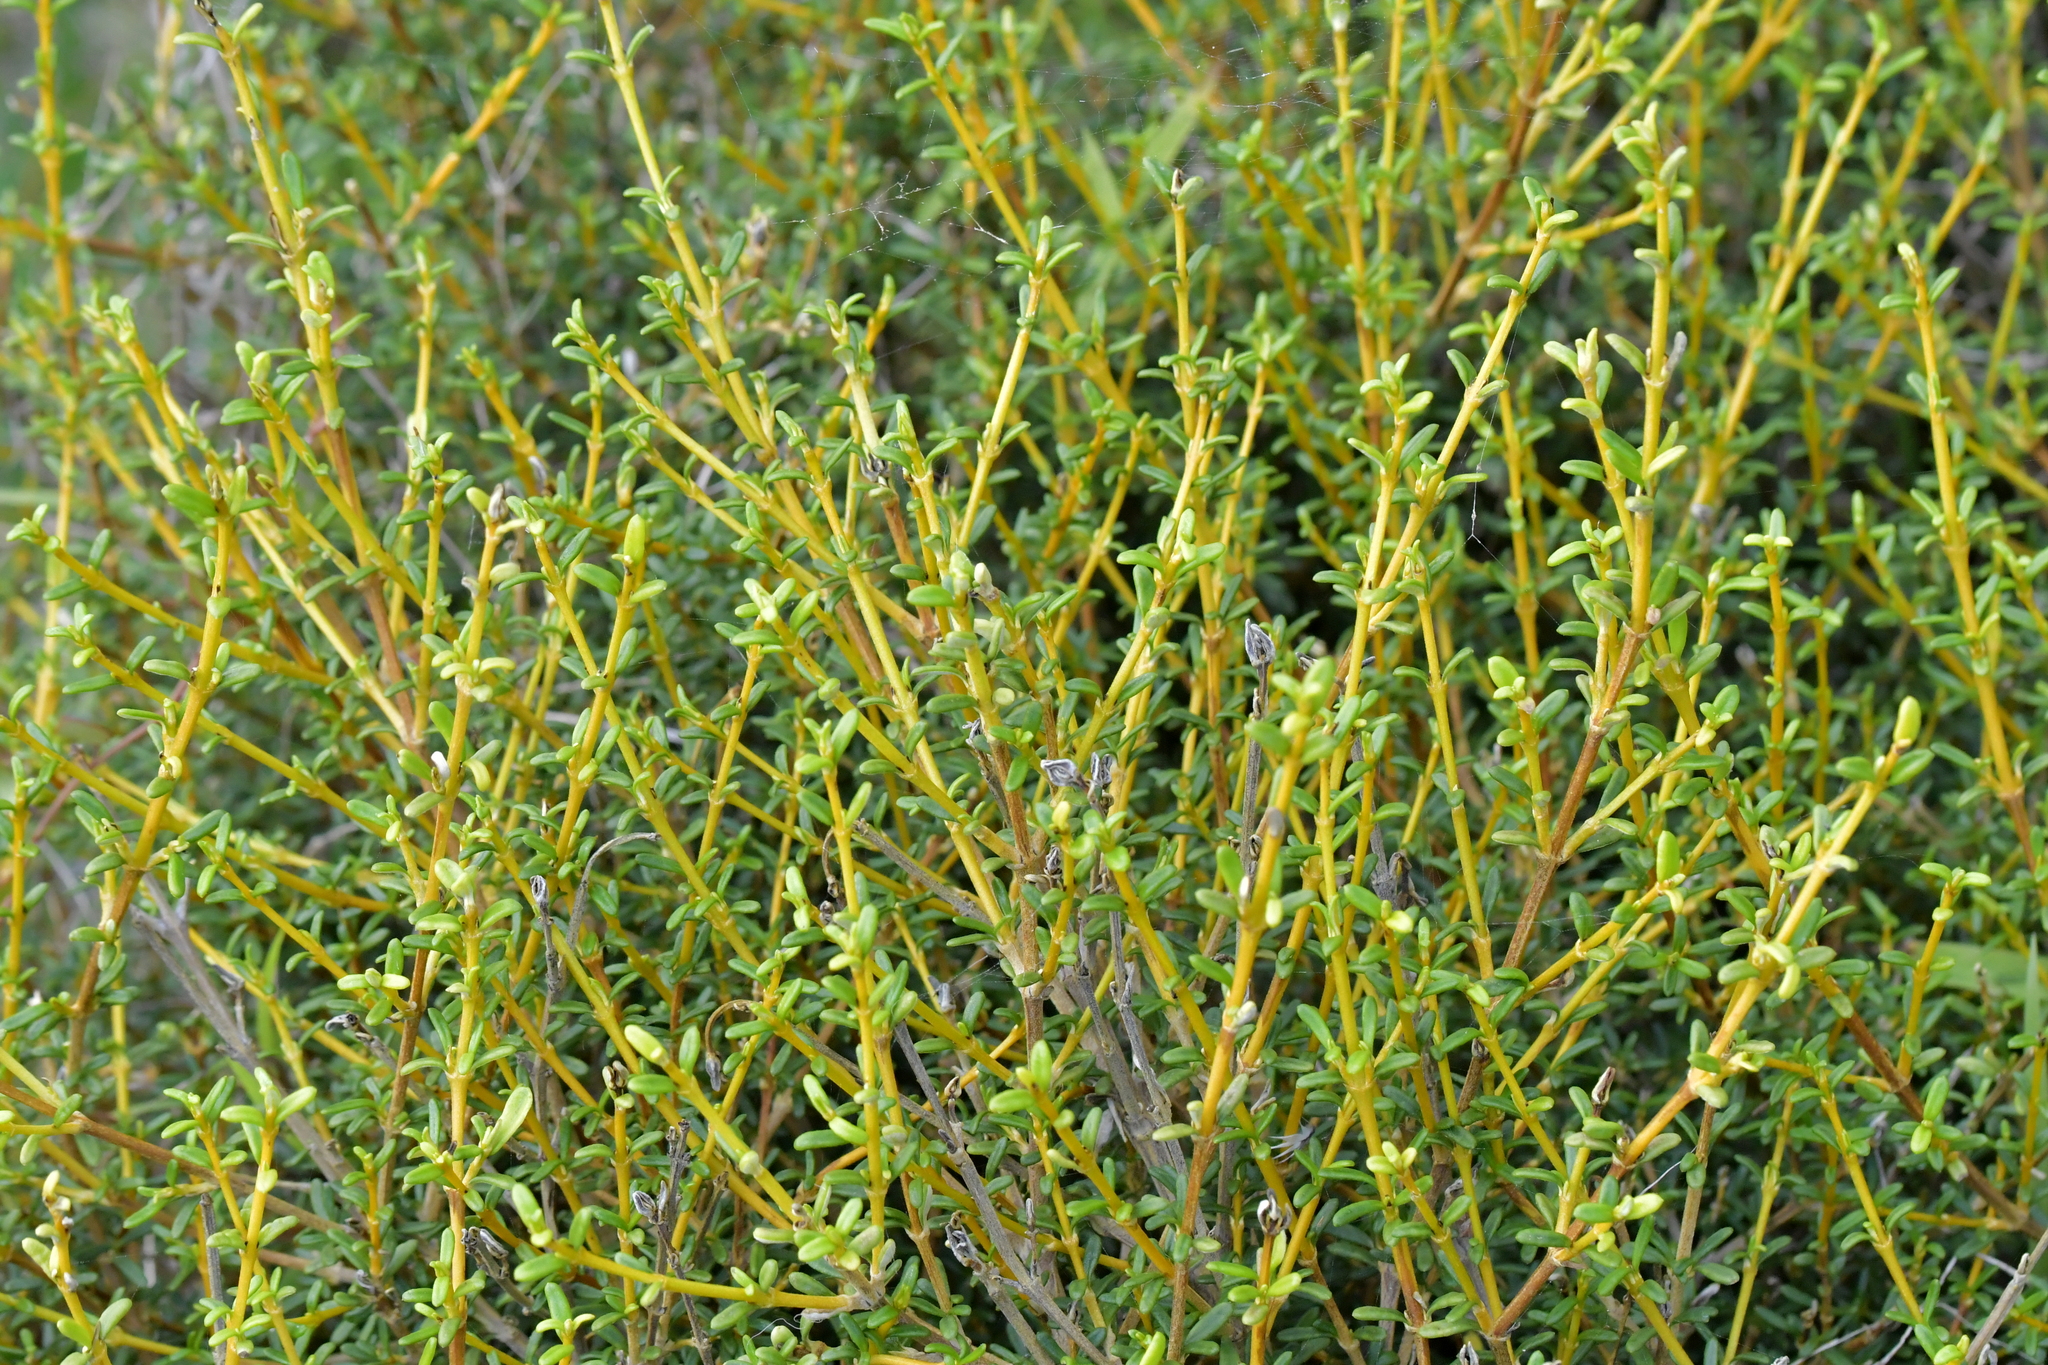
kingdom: Plantae
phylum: Tracheophyta
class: Magnoliopsida
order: Asterales
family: Asteraceae
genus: Olearia
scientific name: Olearia solandri
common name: Coastal daisybush
